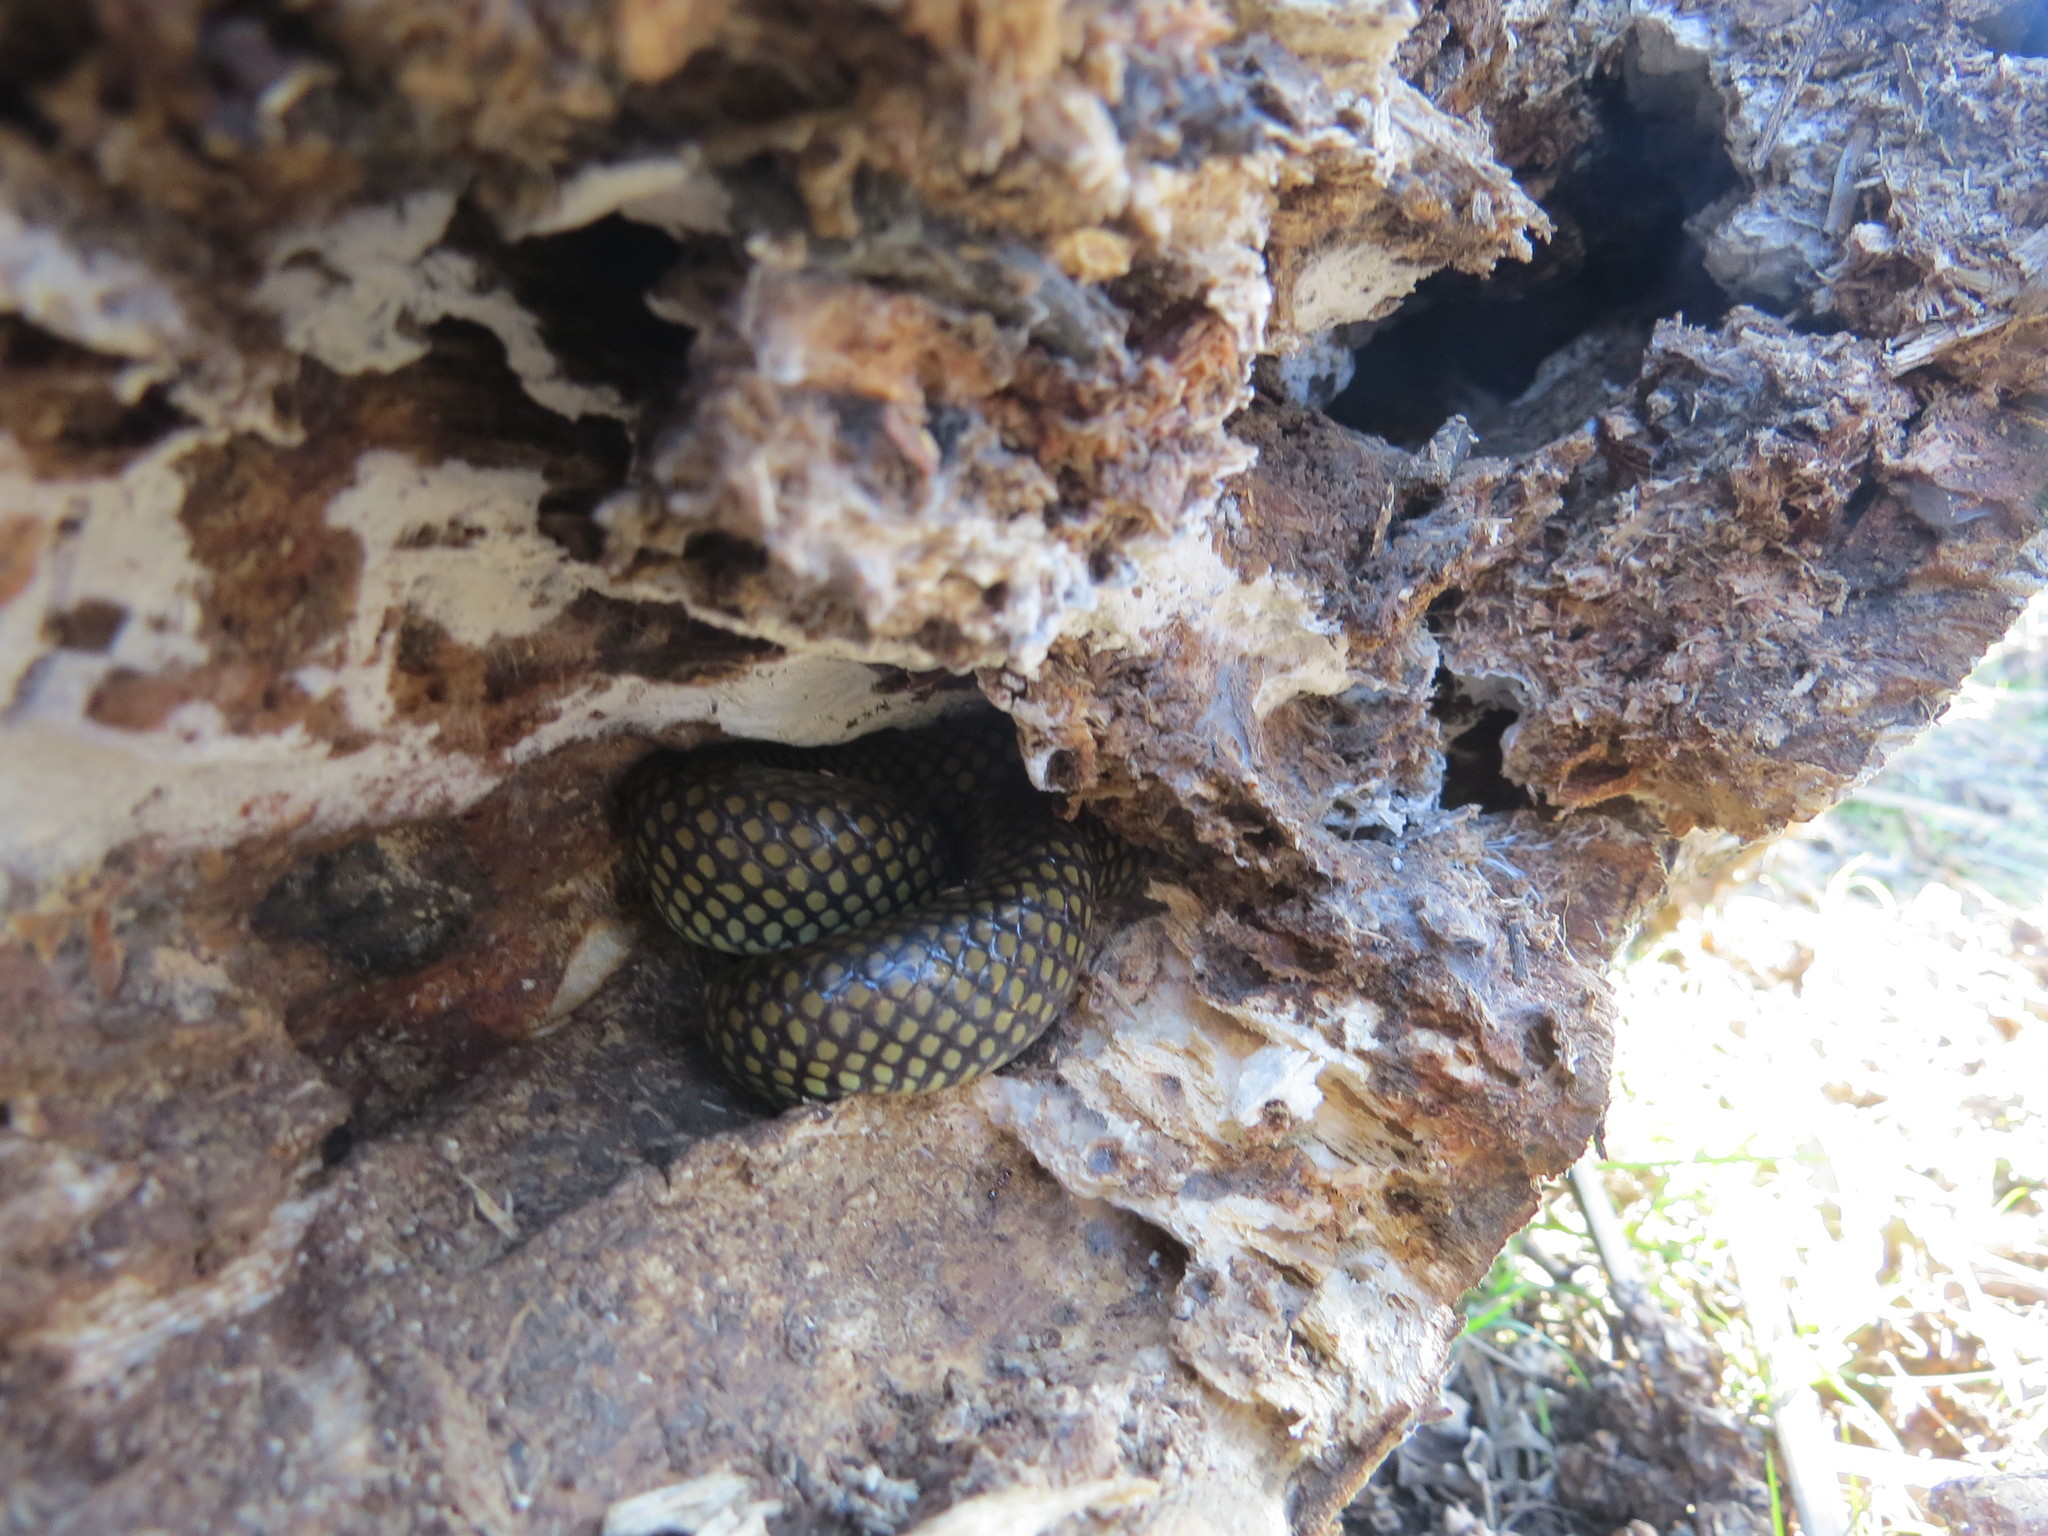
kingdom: Animalia
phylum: Chordata
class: Squamata
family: Colubridae
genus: Erythrolamprus
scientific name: Erythrolamprus semiaureus
